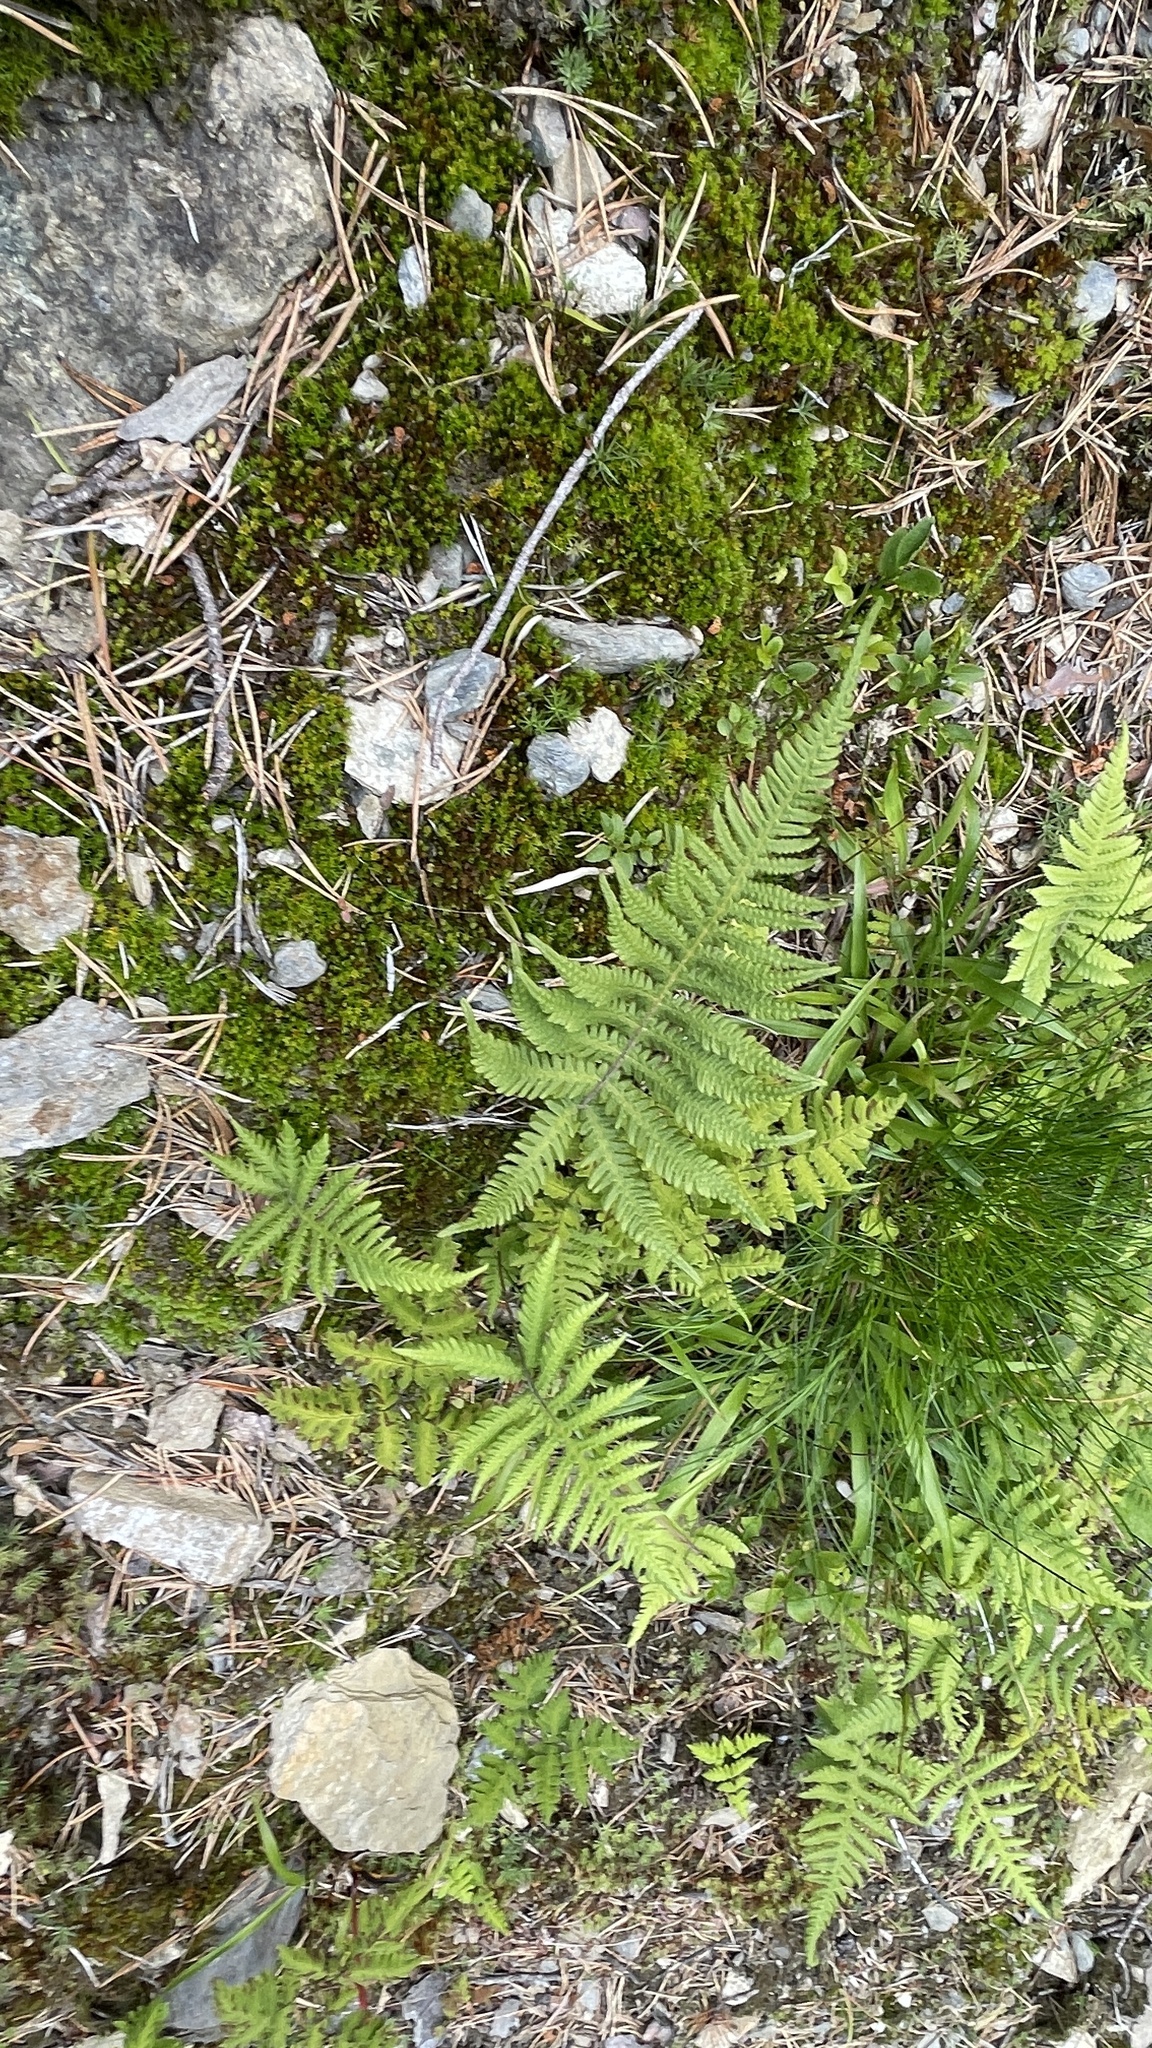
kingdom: Plantae
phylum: Tracheophyta
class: Polypodiopsida
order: Polypodiales
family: Thelypteridaceae
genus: Phegopteris
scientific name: Phegopteris connectilis
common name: Beech fern
